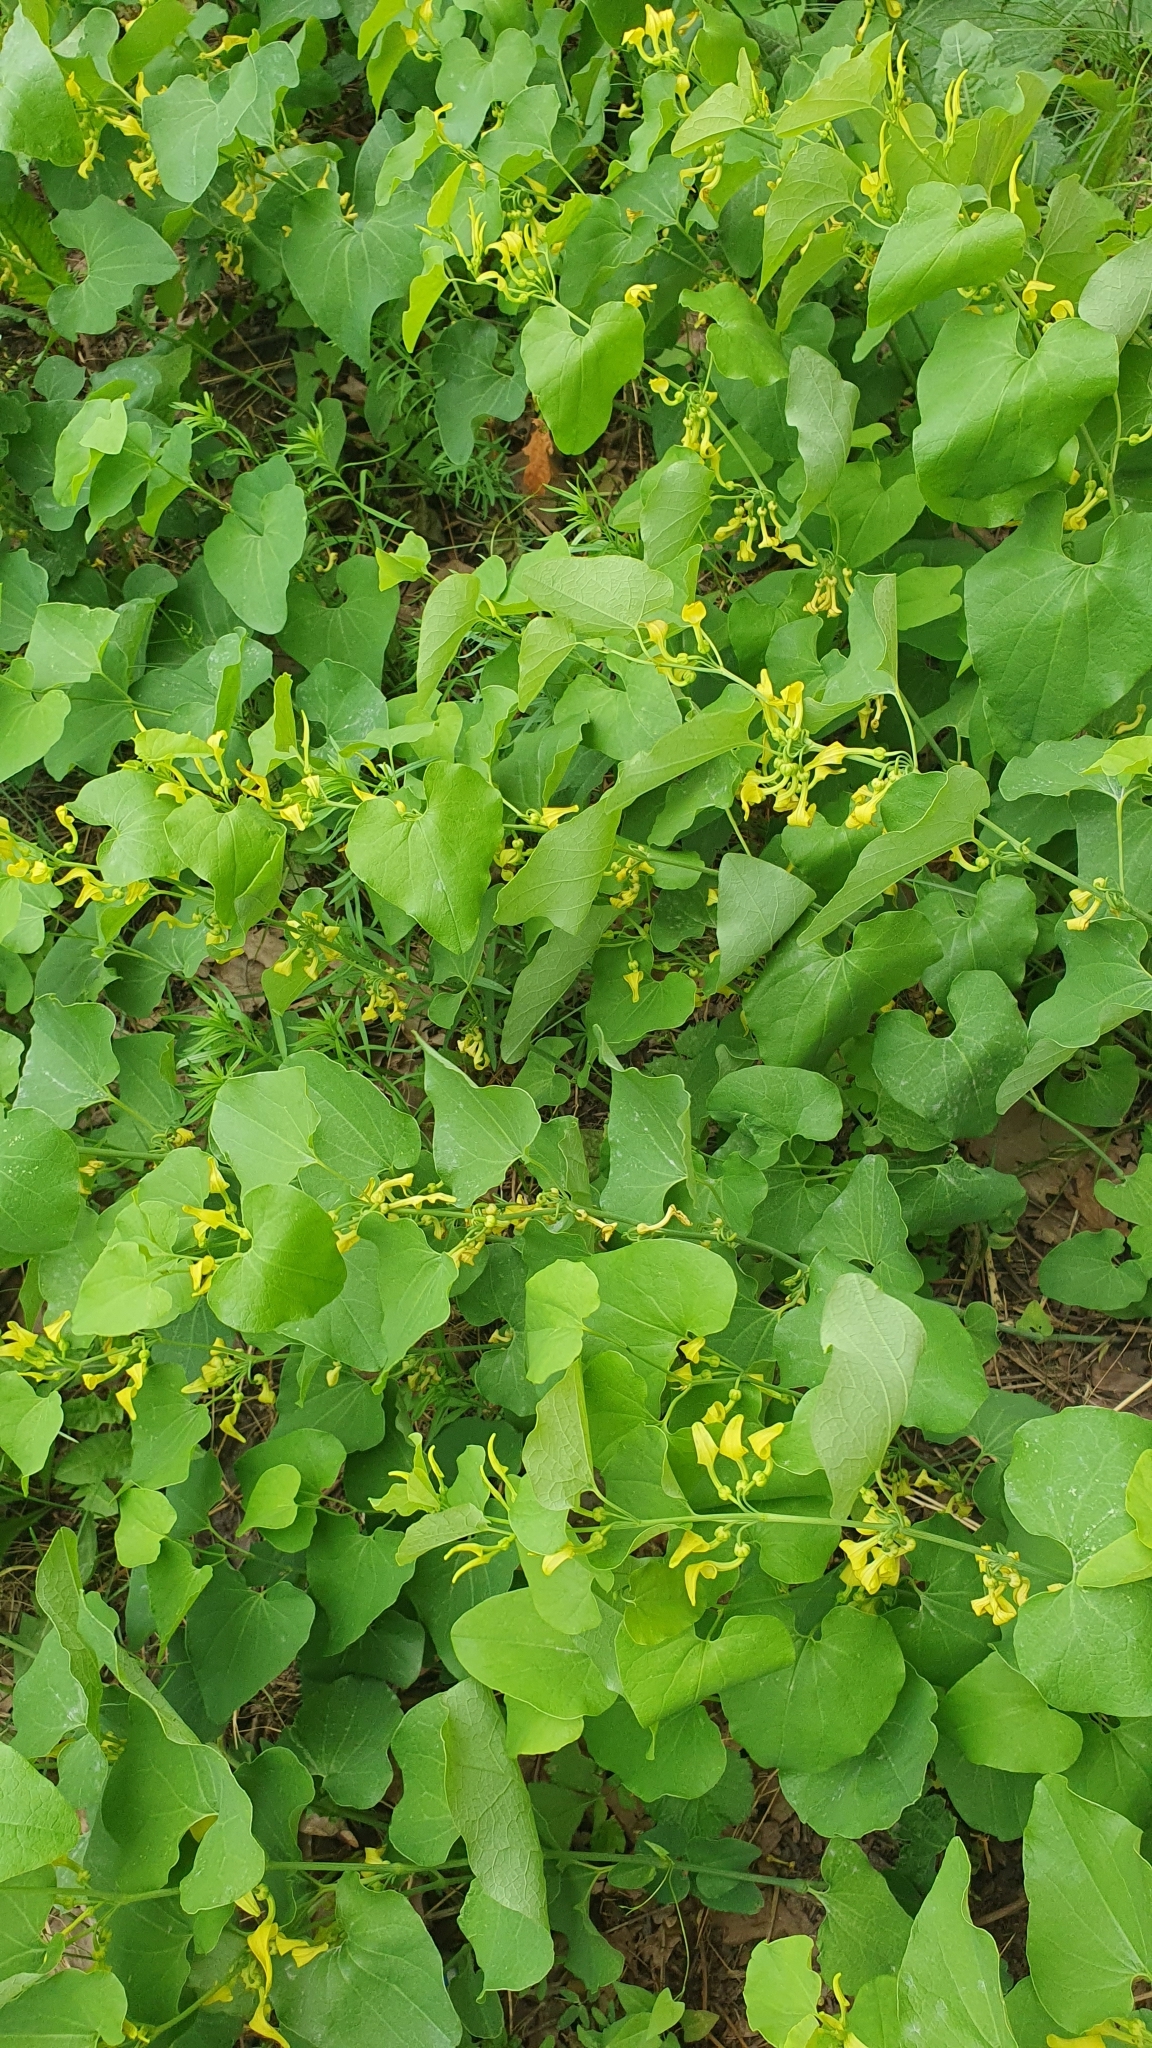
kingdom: Plantae
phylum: Tracheophyta
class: Magnoliopsida
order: Piperales
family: Aristolochiaceae
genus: Aristolochia
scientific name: Aristolochia clematitis
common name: Birthwort
